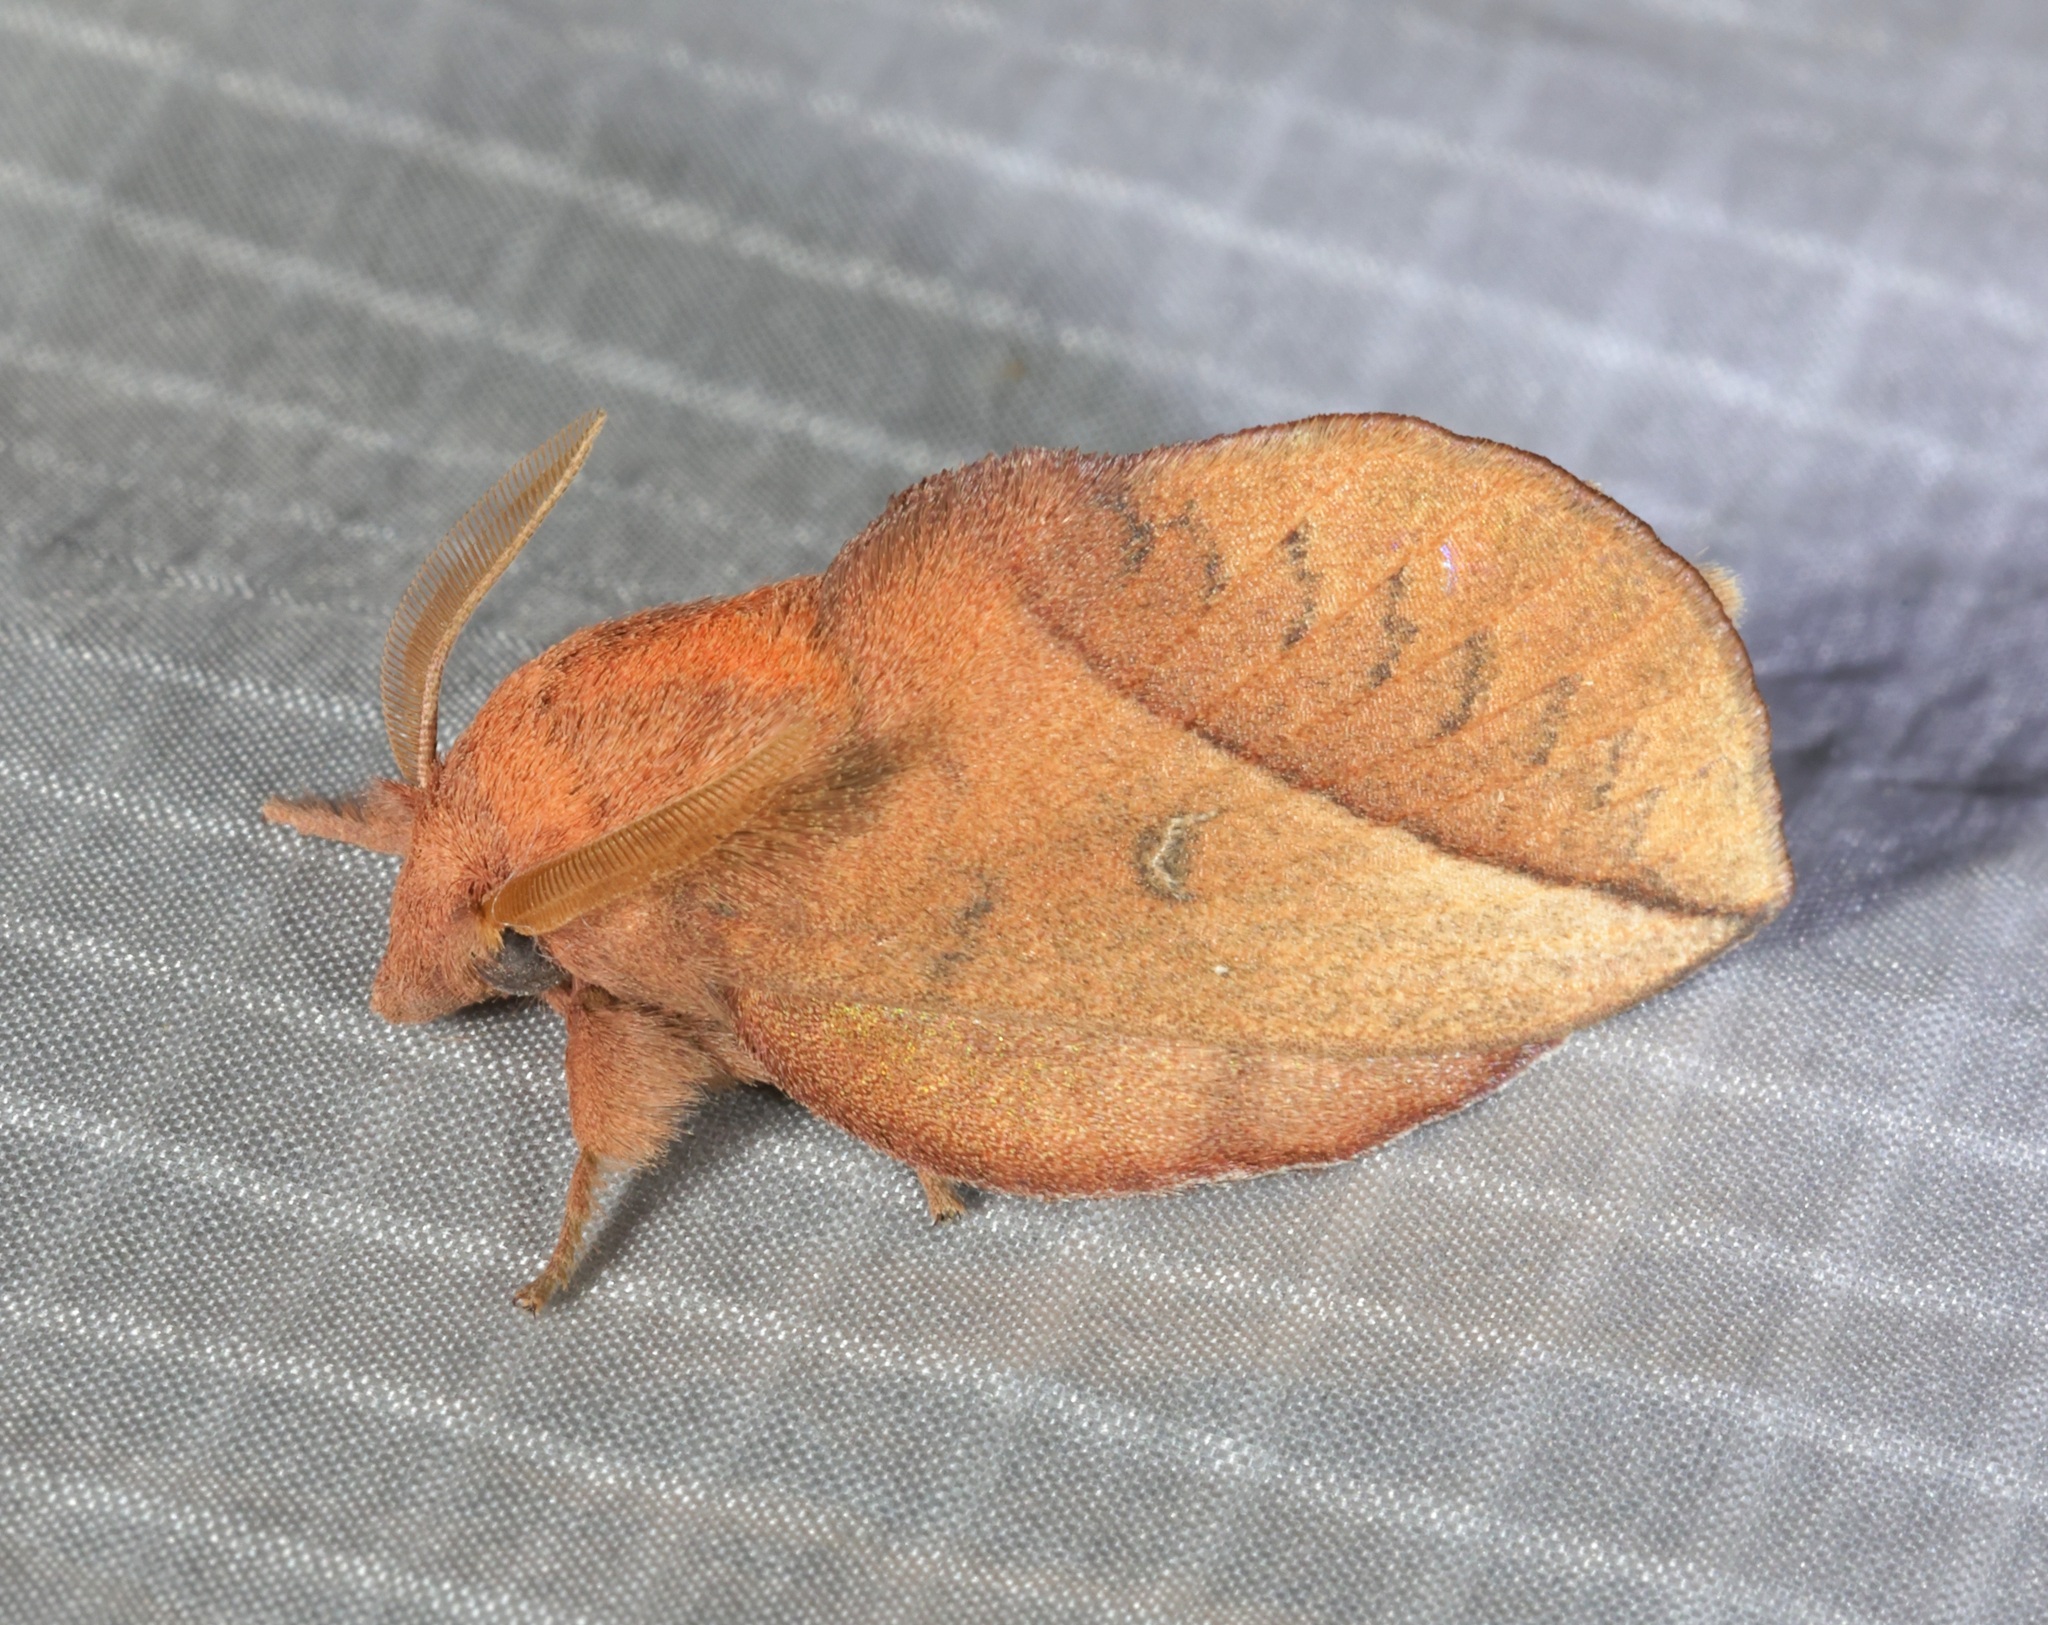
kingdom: Animalia
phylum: Arthropoda
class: Insecta
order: Lepidoptera
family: Lasiocampidae
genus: Euthrix
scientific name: Euthrix isocyma
